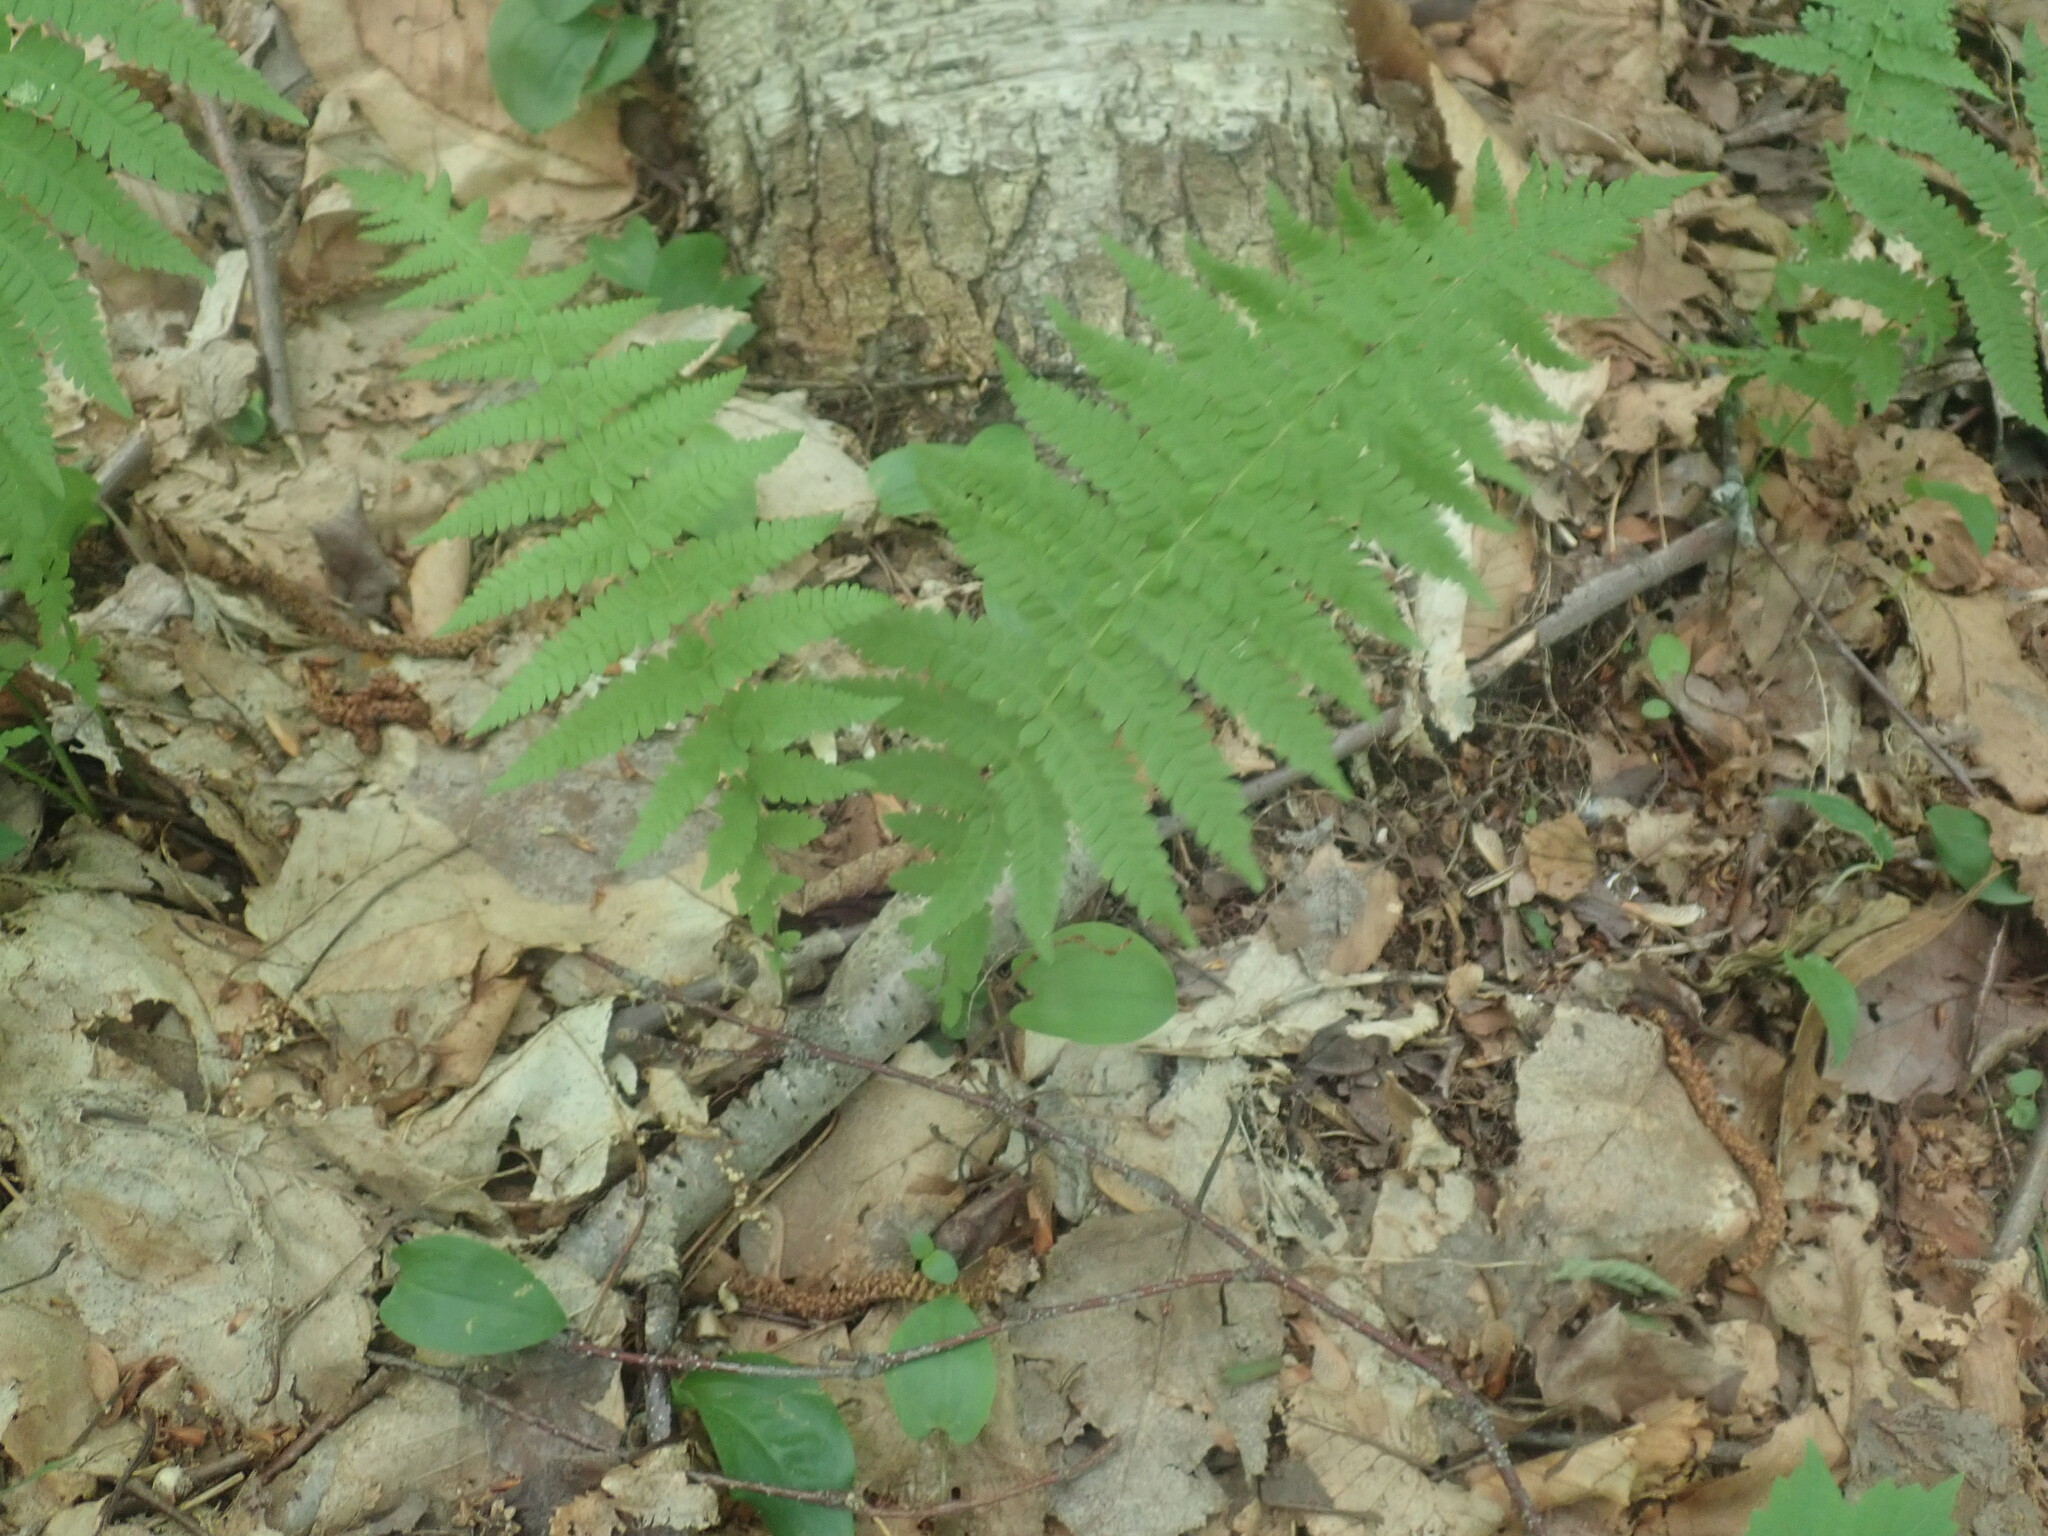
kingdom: Plantae
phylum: Tracheophyta
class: Polypodiopsida
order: Polypodiales
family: Thelypteridaceae
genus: Amauropelta
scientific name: Amauropelta noveboracensis
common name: New york fern
